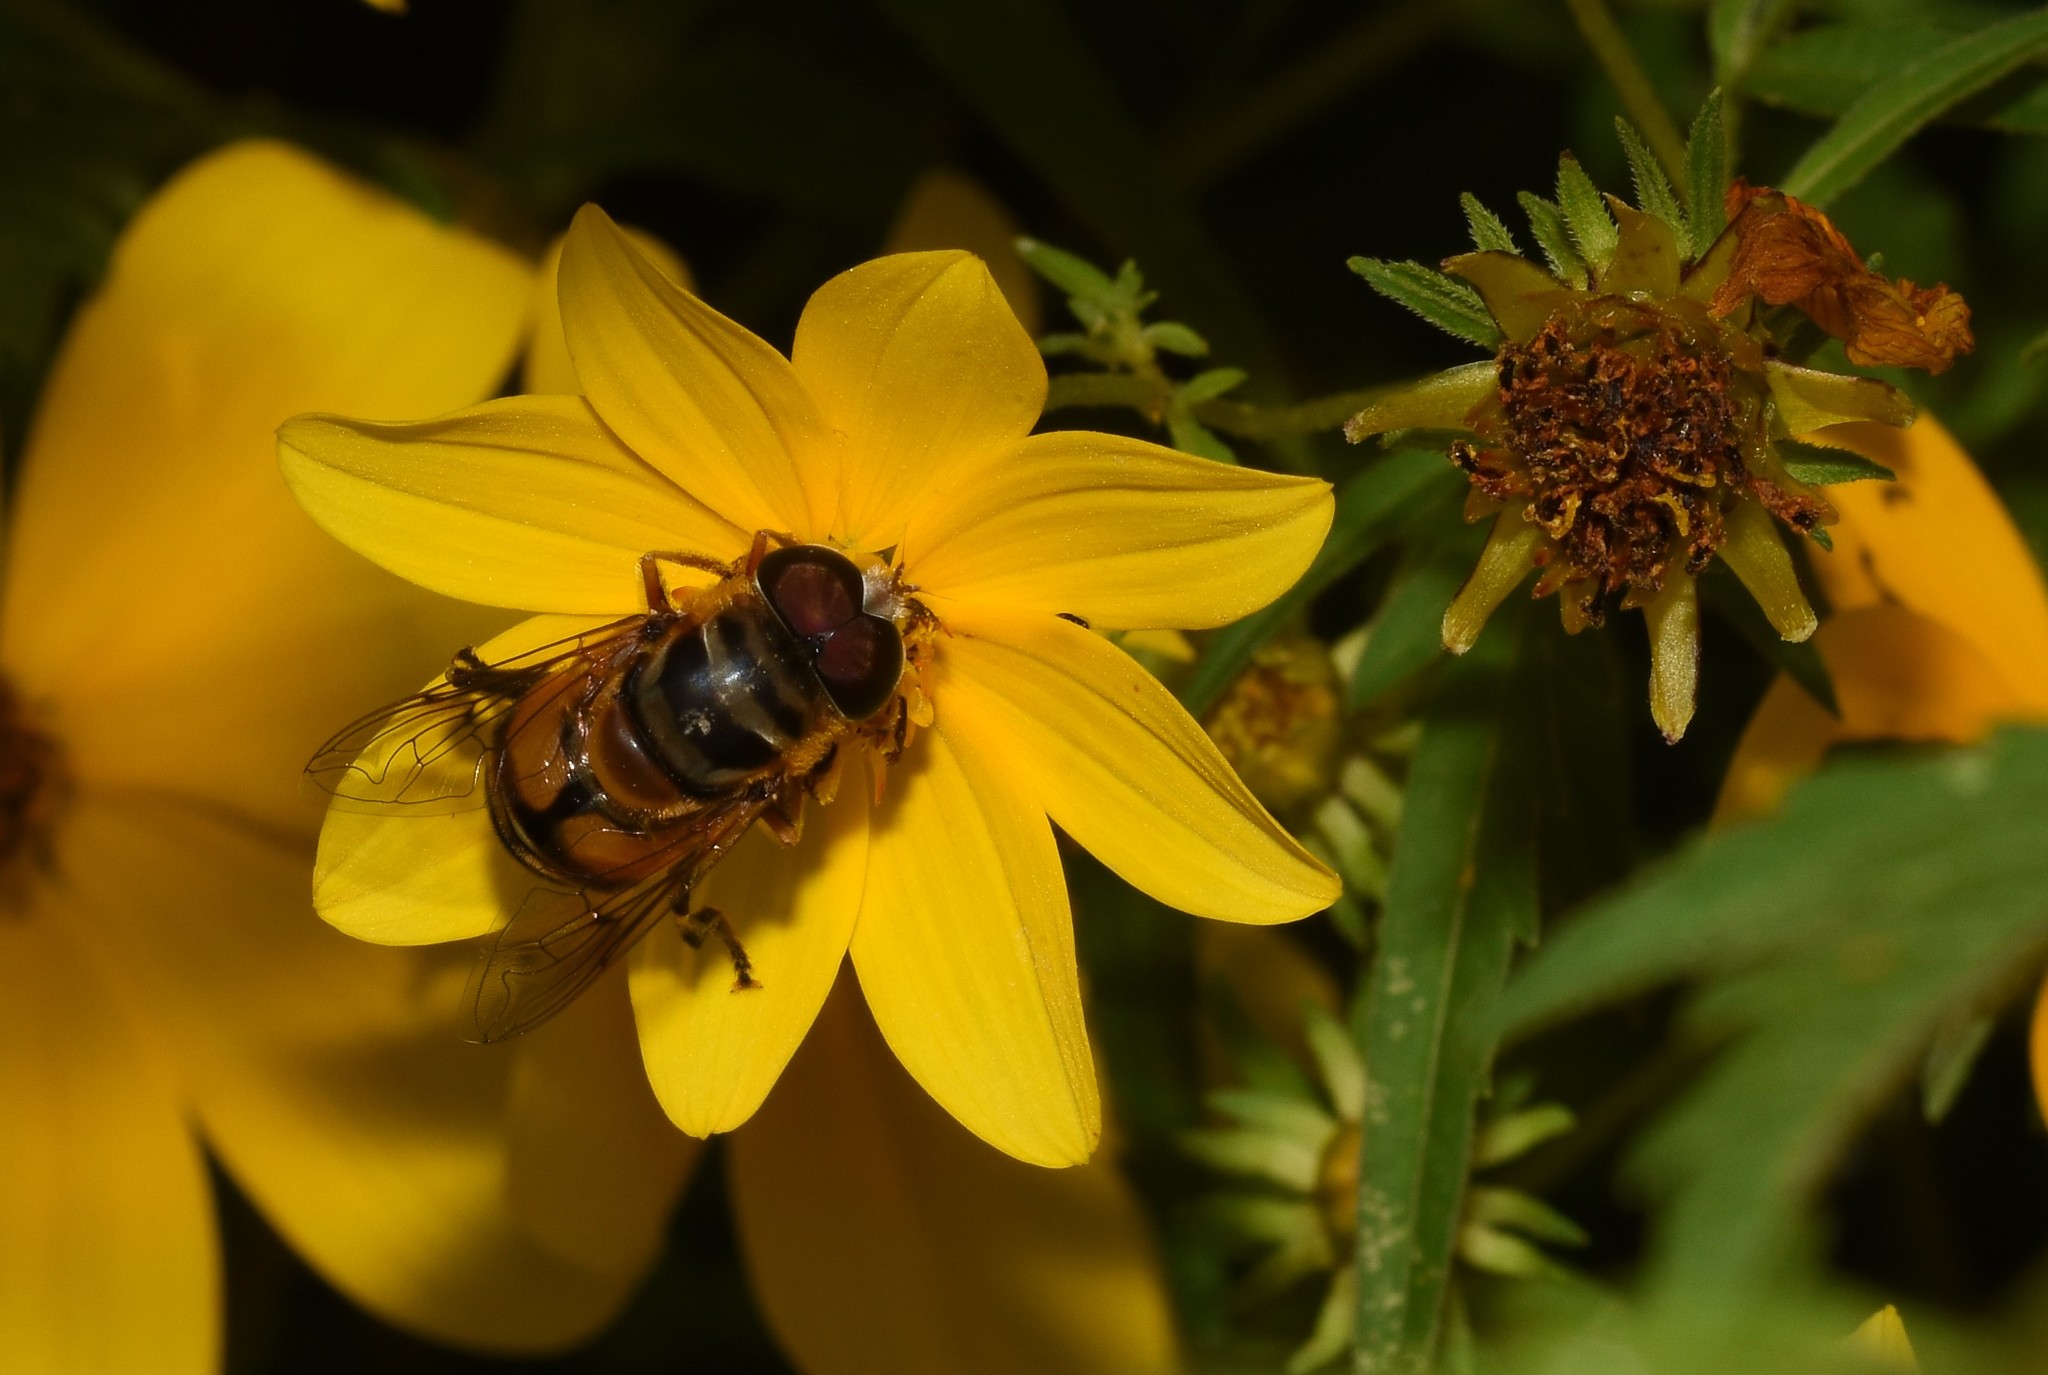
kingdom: Animalia
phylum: Arthropoda
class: Insecta
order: Diptera
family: Syrphidae
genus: Palpada
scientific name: Palpada vinetorum
